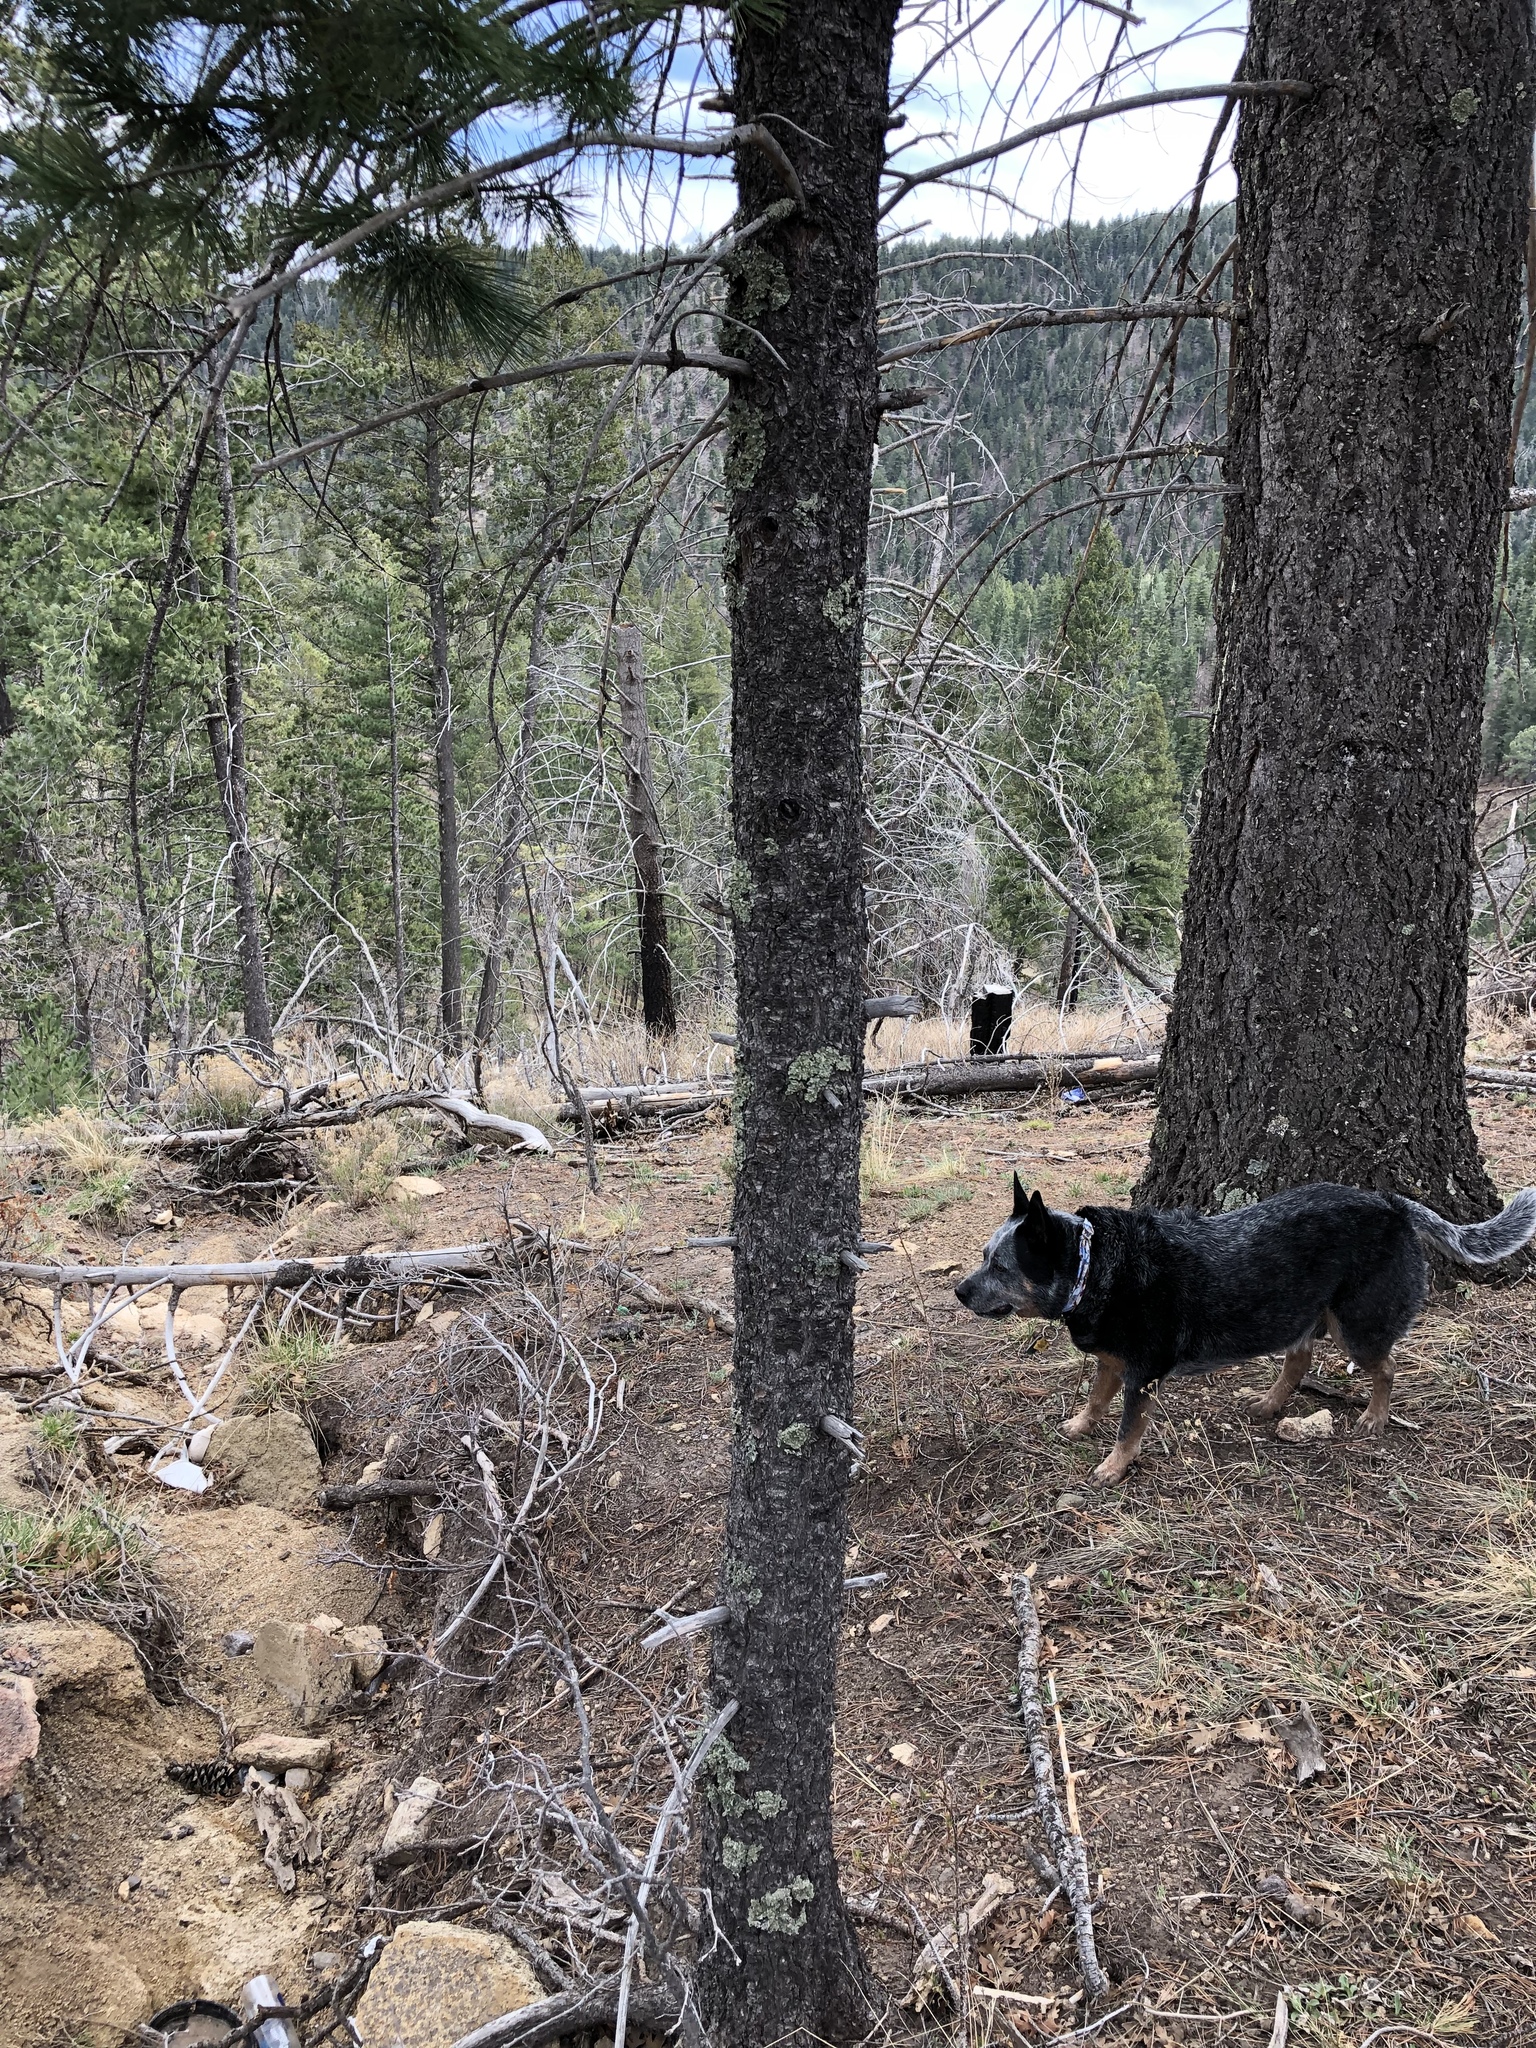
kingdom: Plantae
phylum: Tracheophyta
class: Pinopsida
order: Pinales
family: Pinaceae
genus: Pinus
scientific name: Pinus strobiformis
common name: Southwestern white pine
